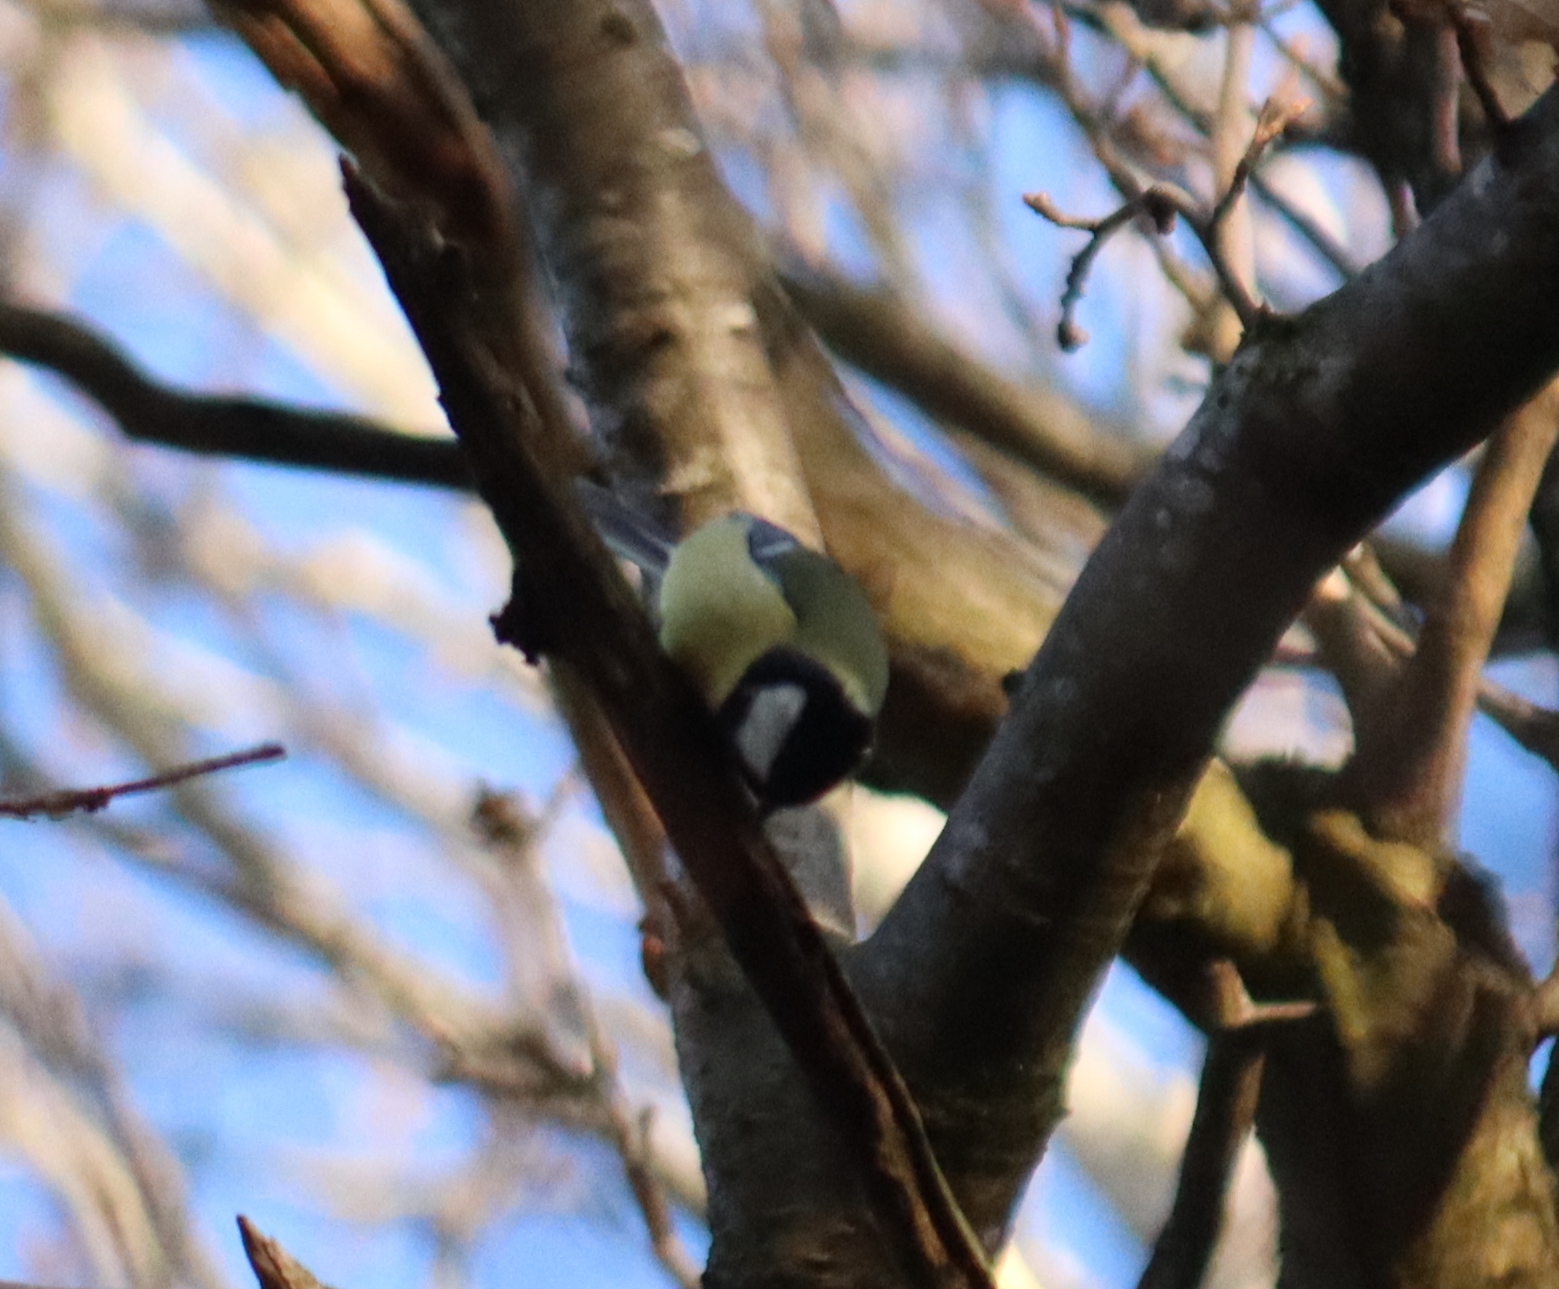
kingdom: Animalia
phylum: Chordata
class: Aves
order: Passeriformes
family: Paridae
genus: Parus
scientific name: Parus major
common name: Great tit
